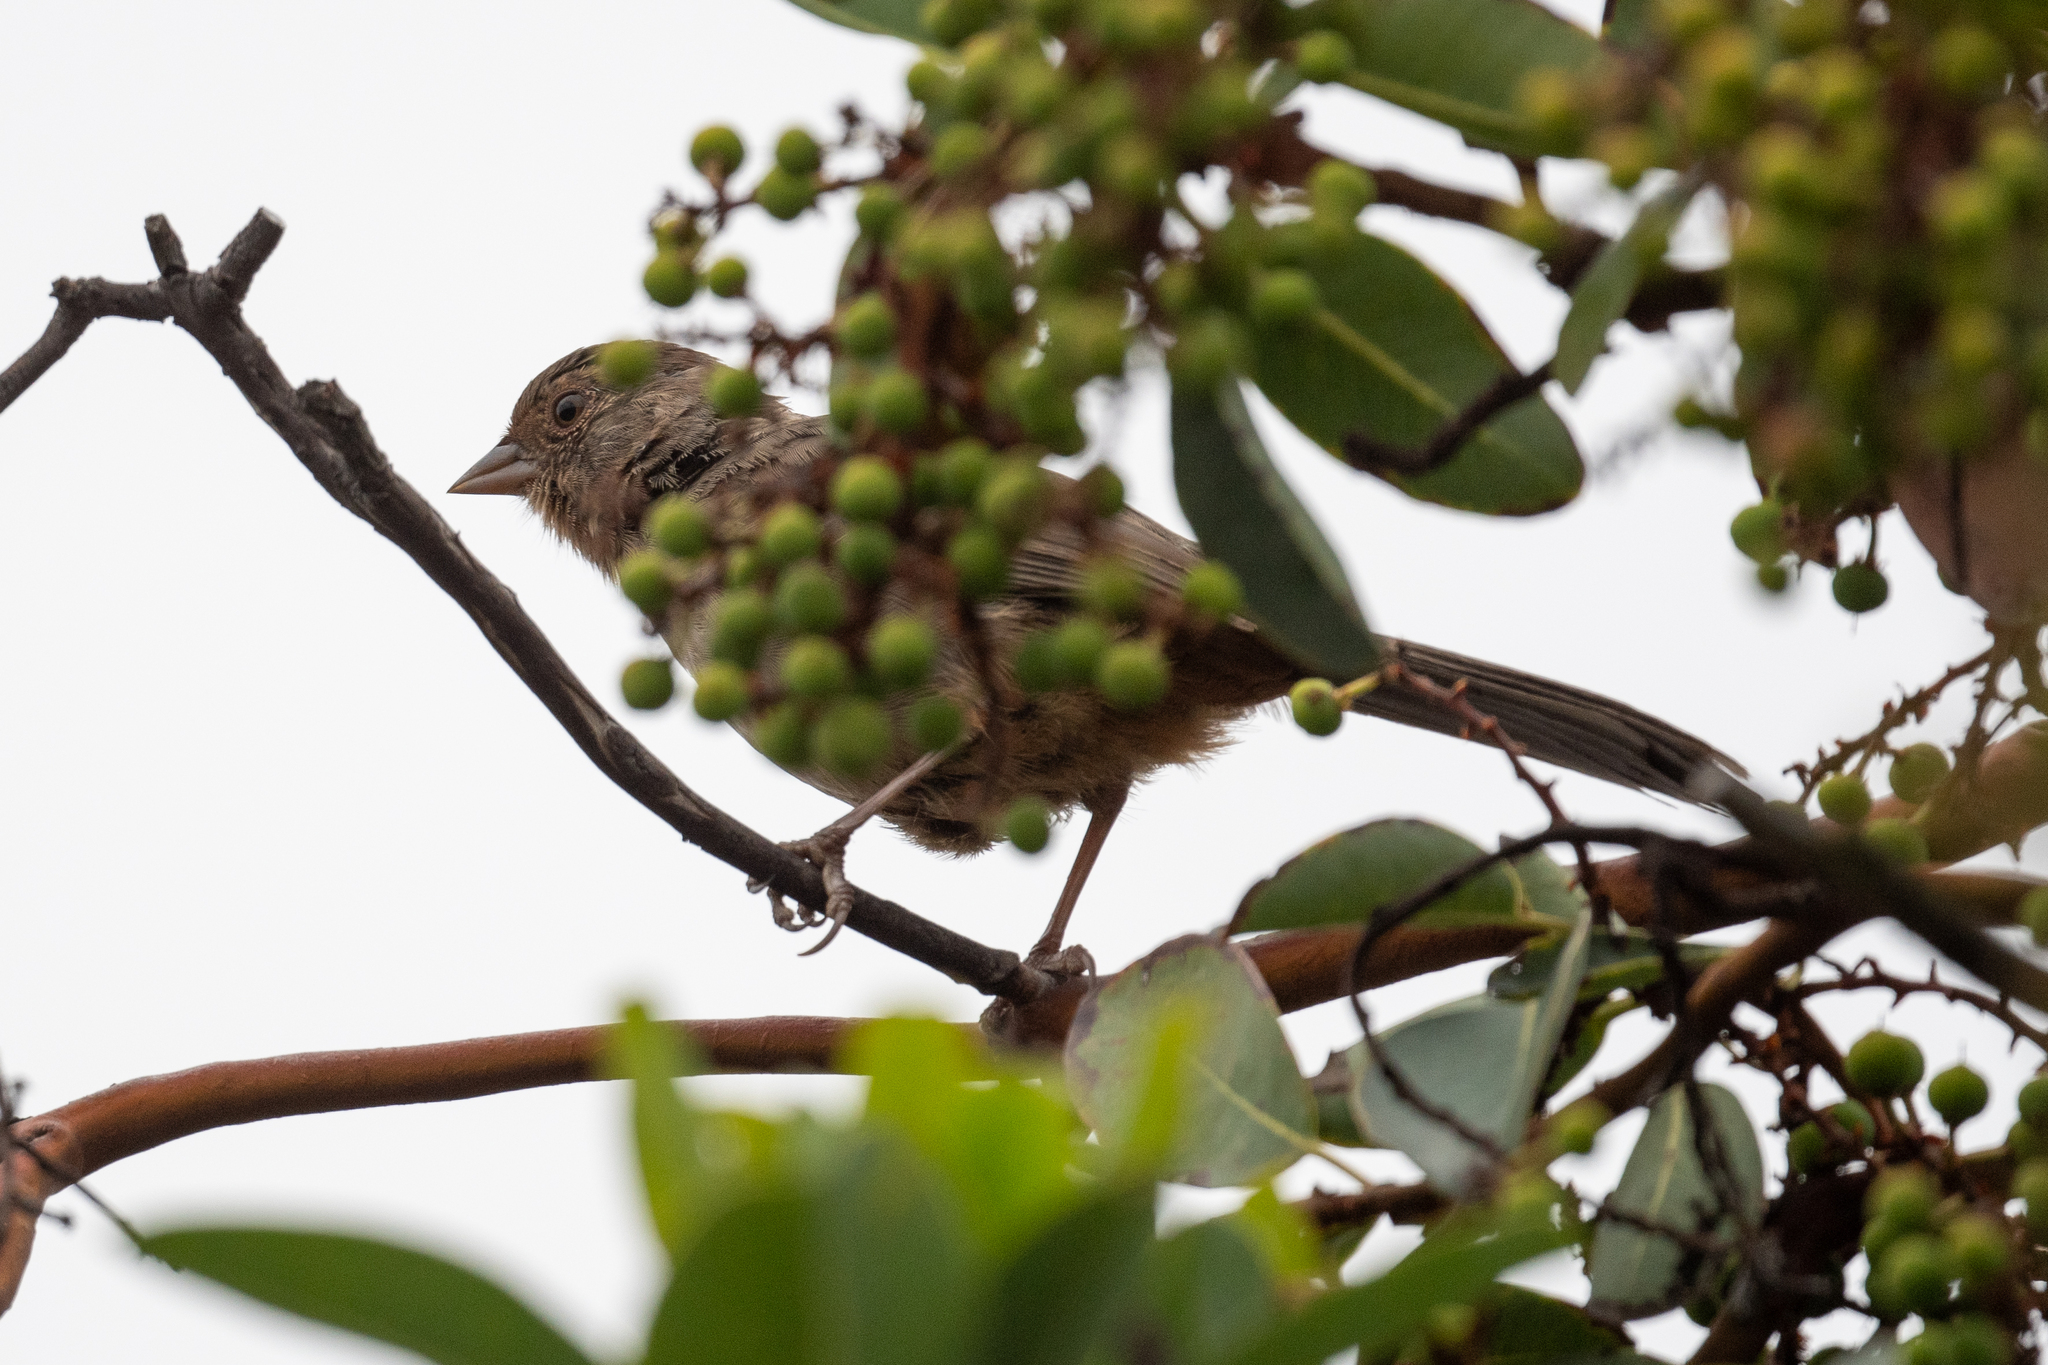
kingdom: Animalia
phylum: Chordata
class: Aves
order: Passeriformes
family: Passerellidae
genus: Melozone
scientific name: Melozone crissalis
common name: California towhee
